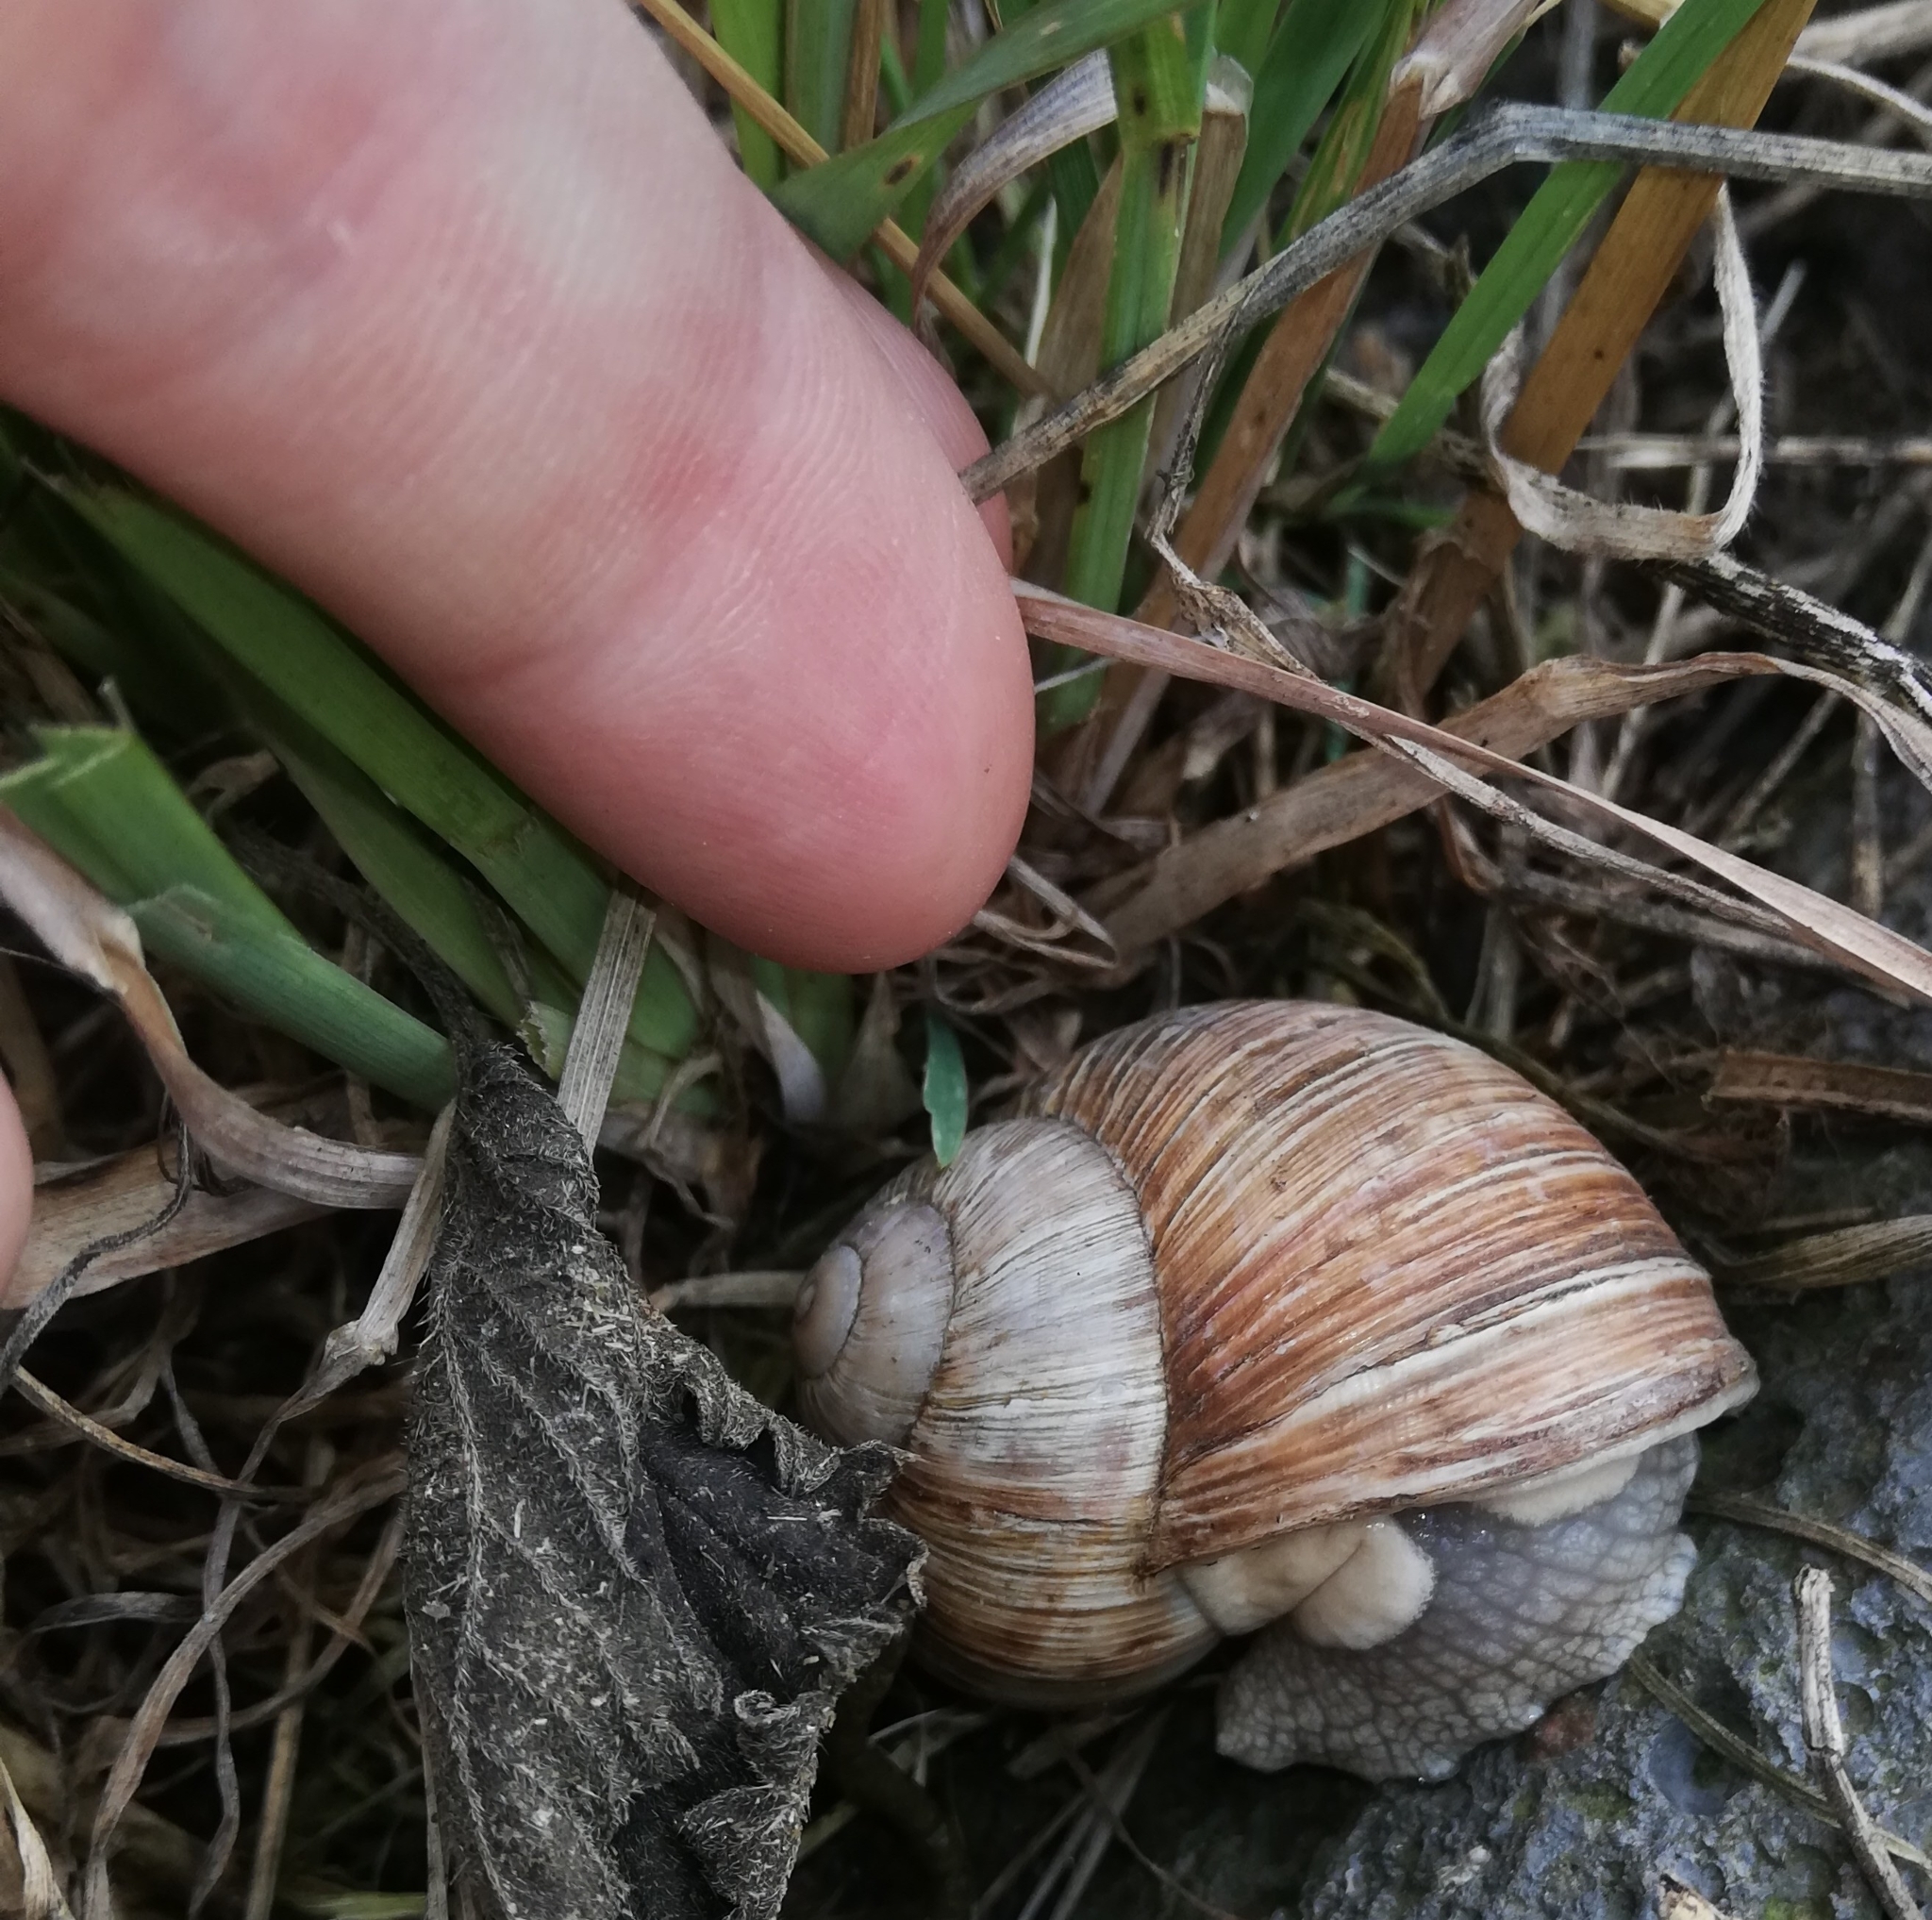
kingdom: Animalia
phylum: Mollusca
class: Gastropoda
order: Stylommatophora
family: Helicidae
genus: Helix
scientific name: Helix pomatia
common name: Roman snail
